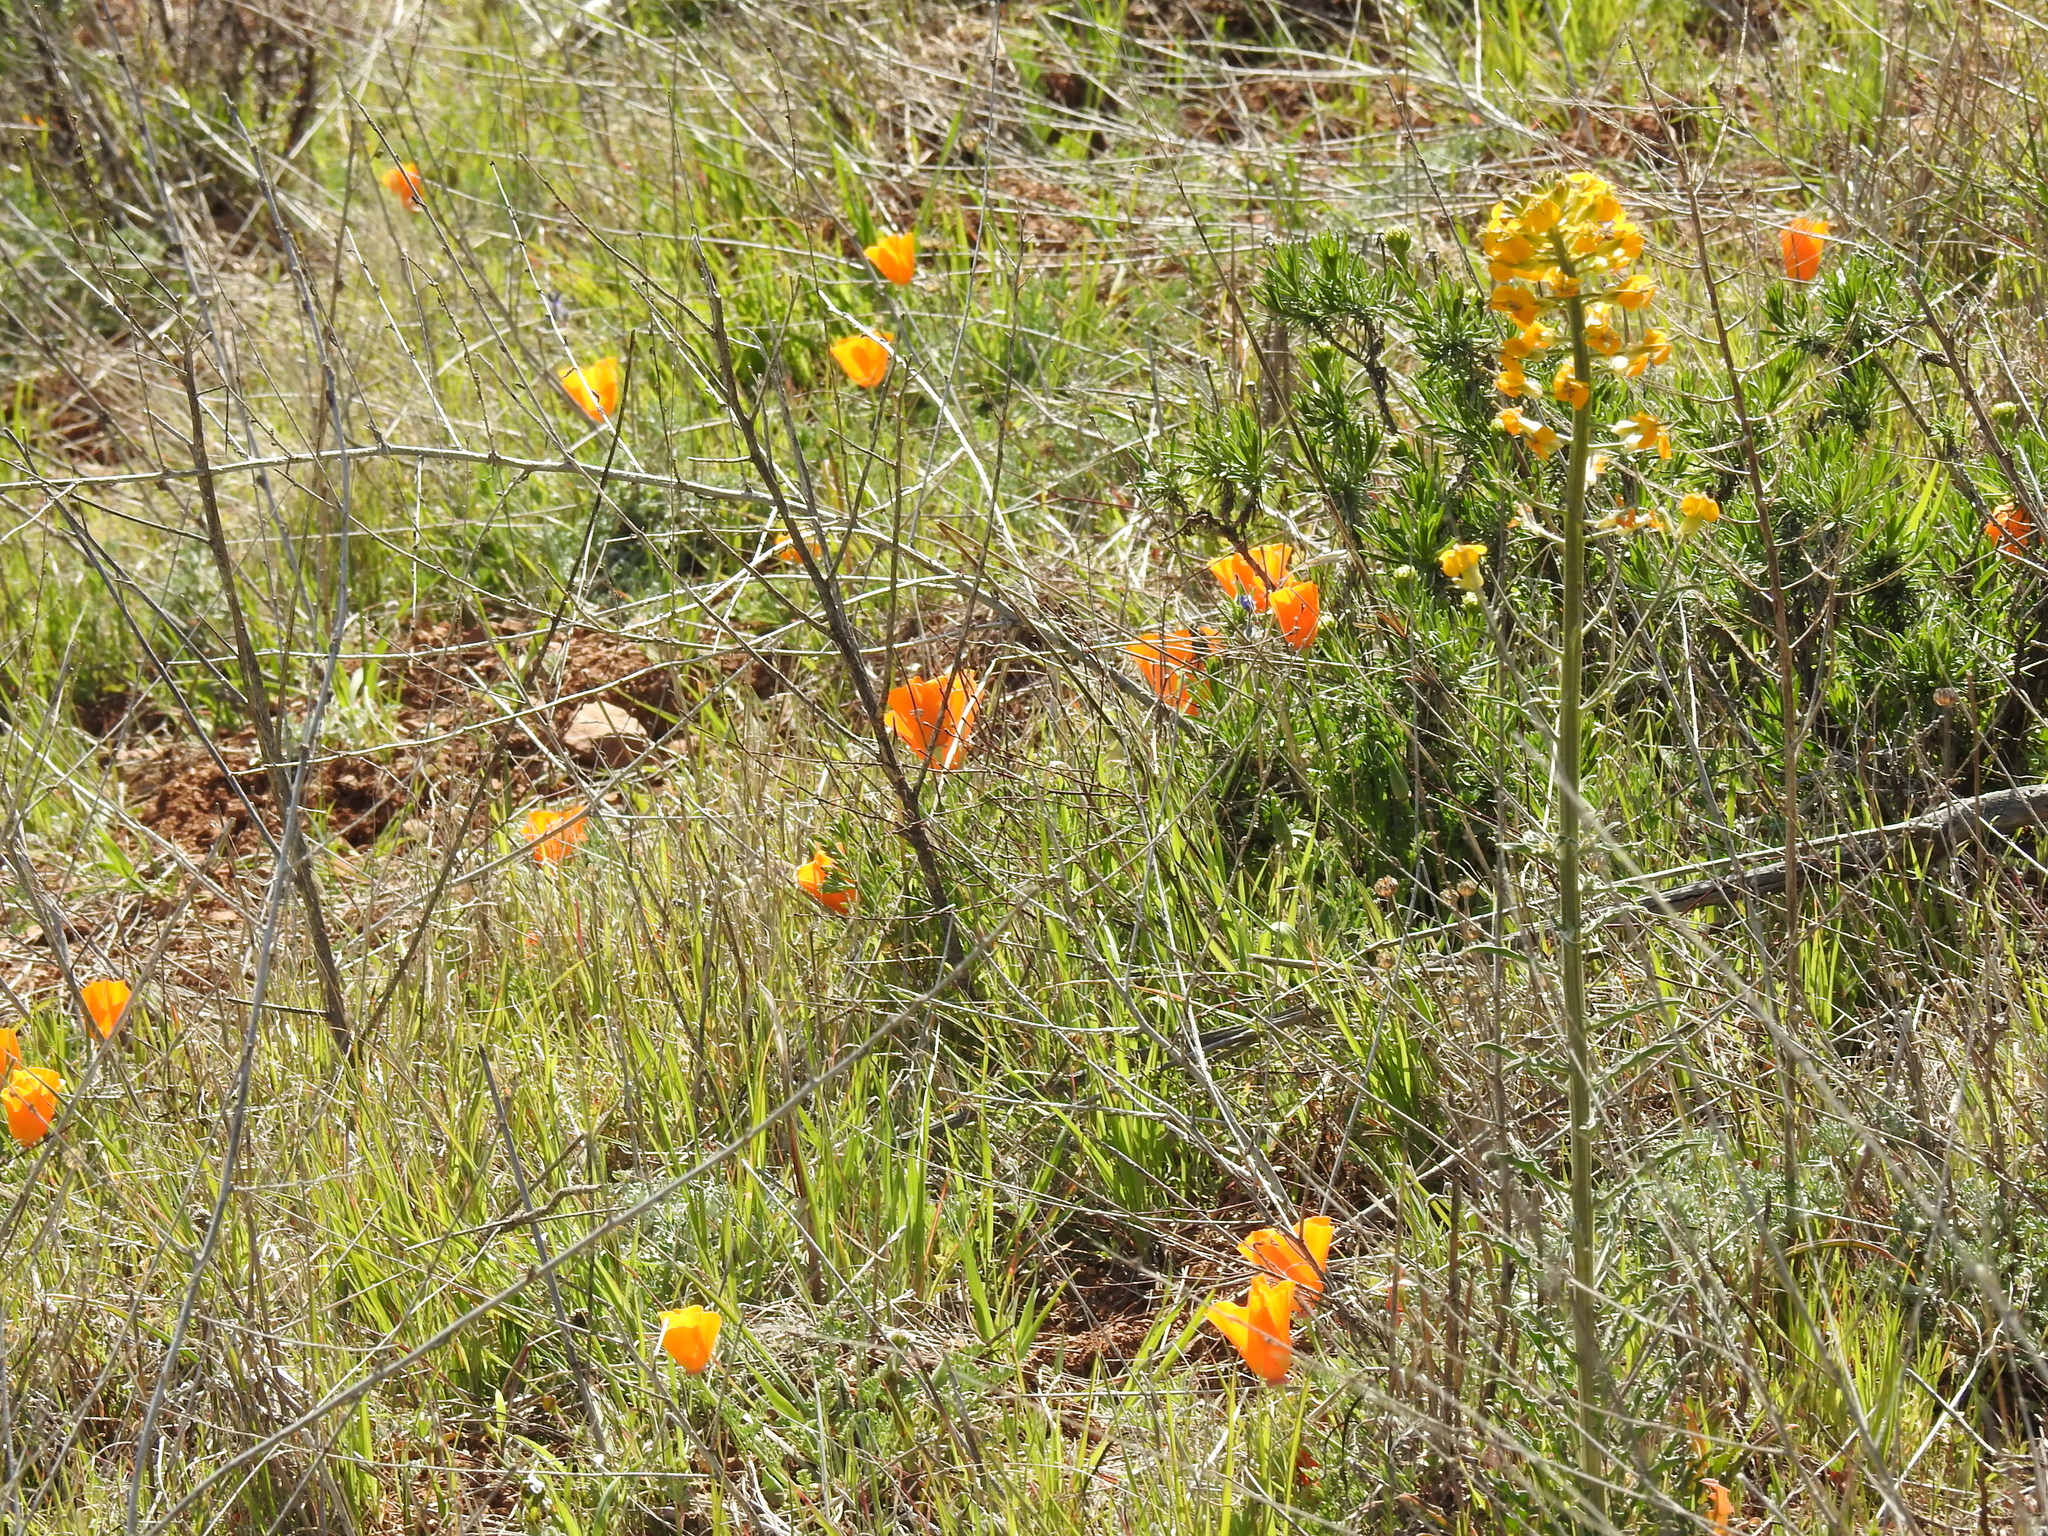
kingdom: Plantae
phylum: Tracheophyta
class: Magnoliopsida
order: Ranunculales
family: Papaveraceae
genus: Eschscholzia
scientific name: Eschscholzia californica
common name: California poppy
